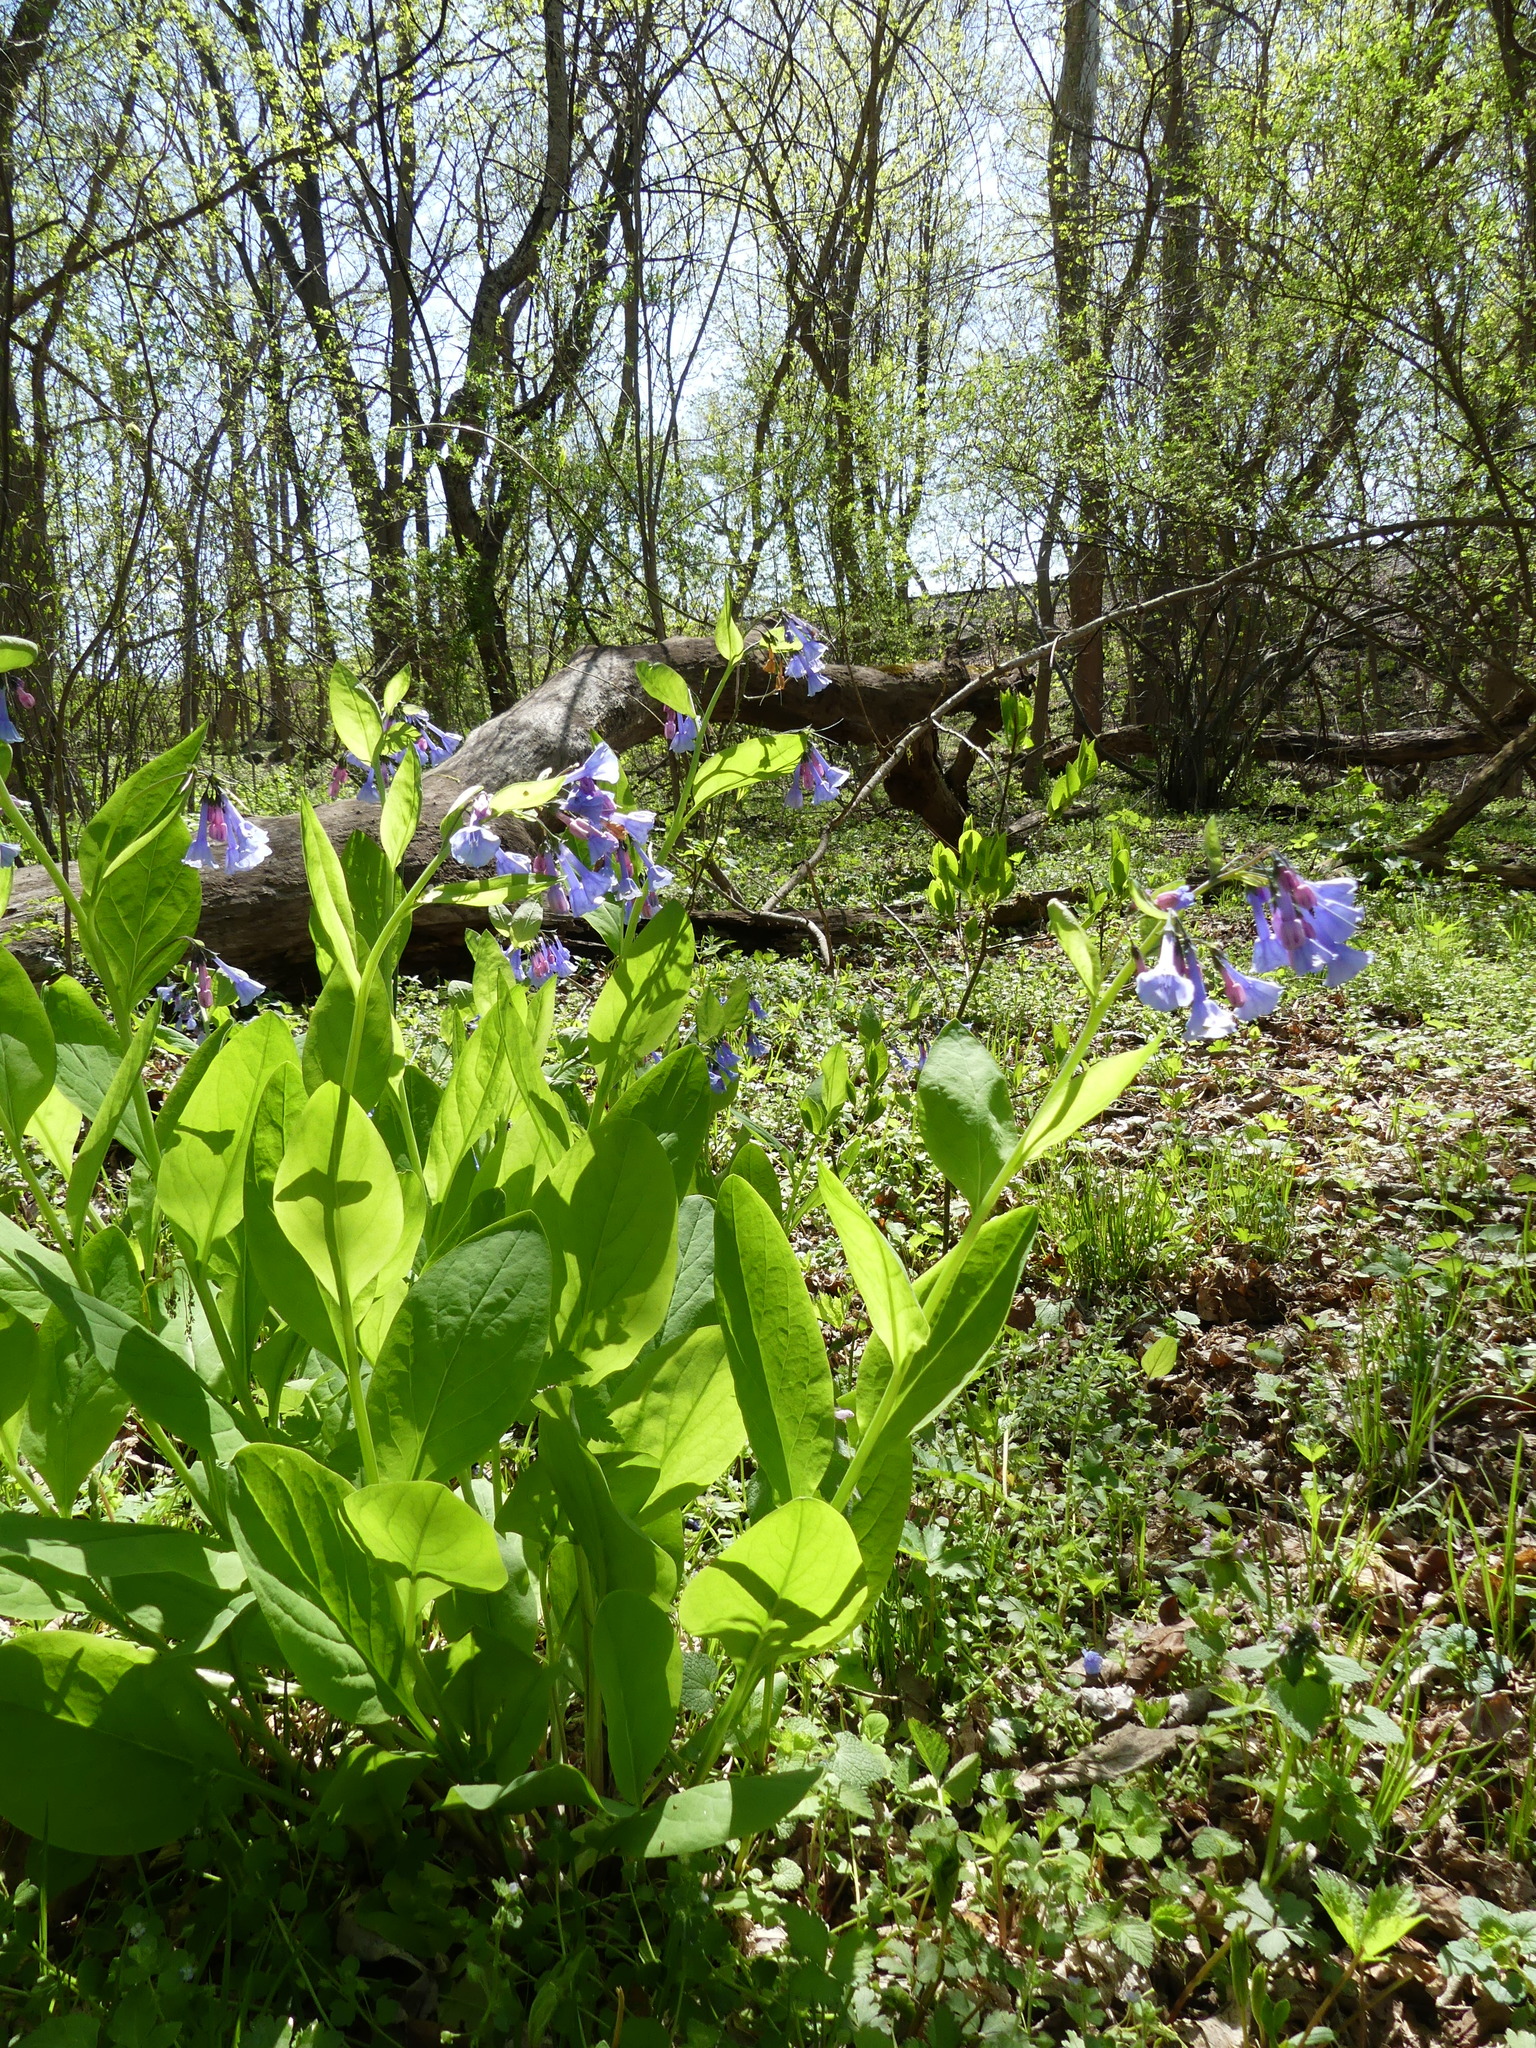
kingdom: Plantae
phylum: Tracheophyta
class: Magnoliopsida
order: Boraginales
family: Boraginaceae
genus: Mertensia
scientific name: Mertensia virginica
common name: Virginia bluebells
